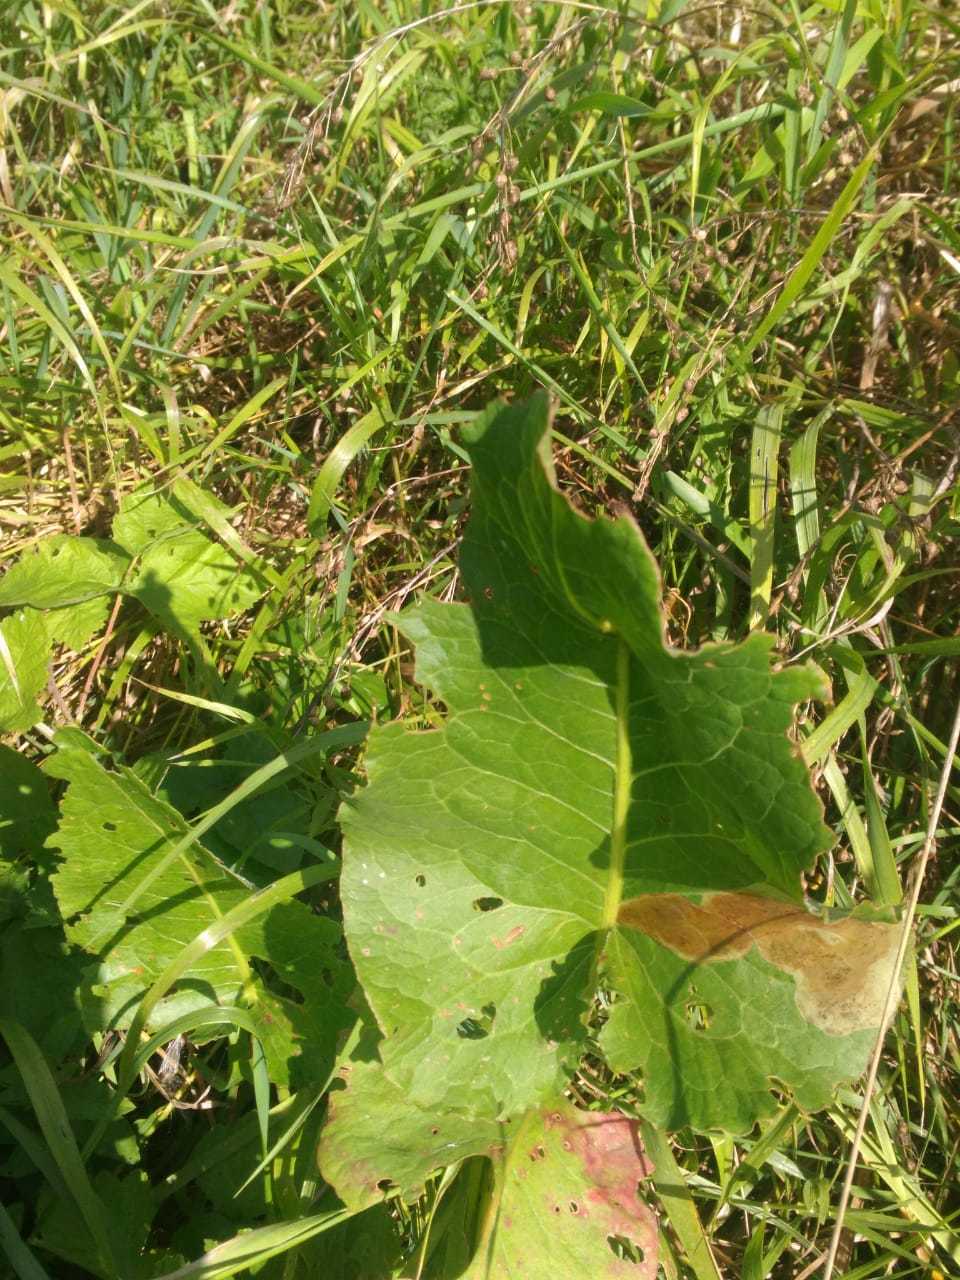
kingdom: Plantae
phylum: Tracheophyta
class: Magnoliopsida
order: Caryophyllales
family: Polygonaceae
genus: Rumex
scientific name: Rumex confertus
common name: Russian dock
